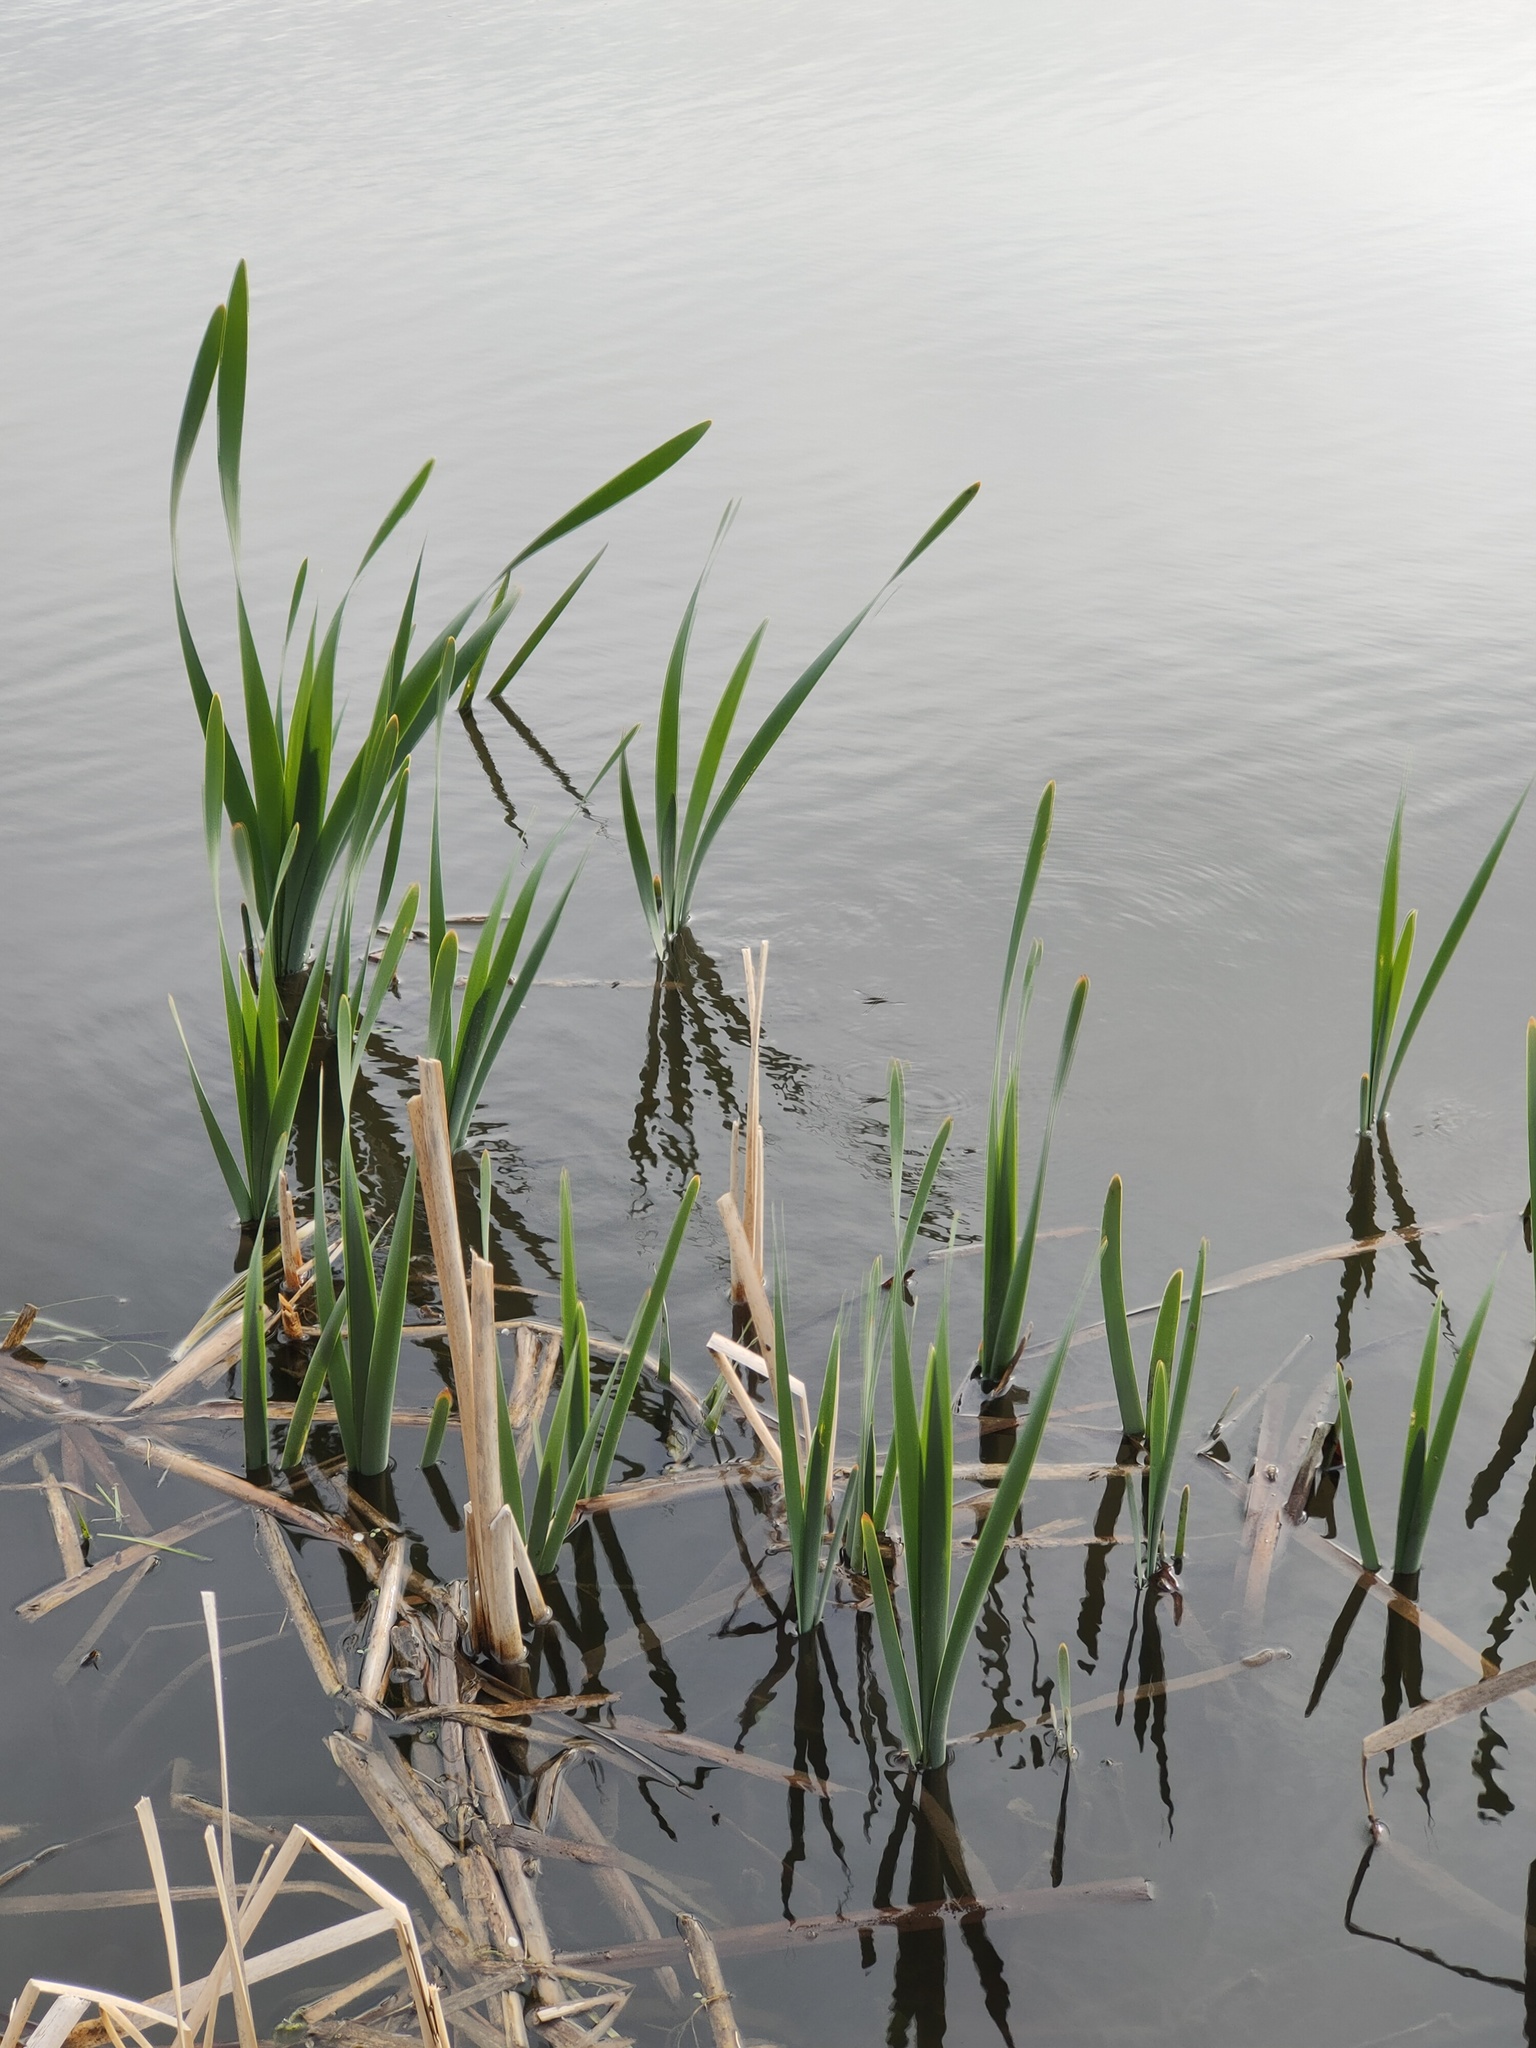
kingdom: Plantae
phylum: Tracheophyta
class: Liliopsida
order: Poales
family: Typhaceae
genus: Typha
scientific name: Typha latifolia
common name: Broadleaf cattail
